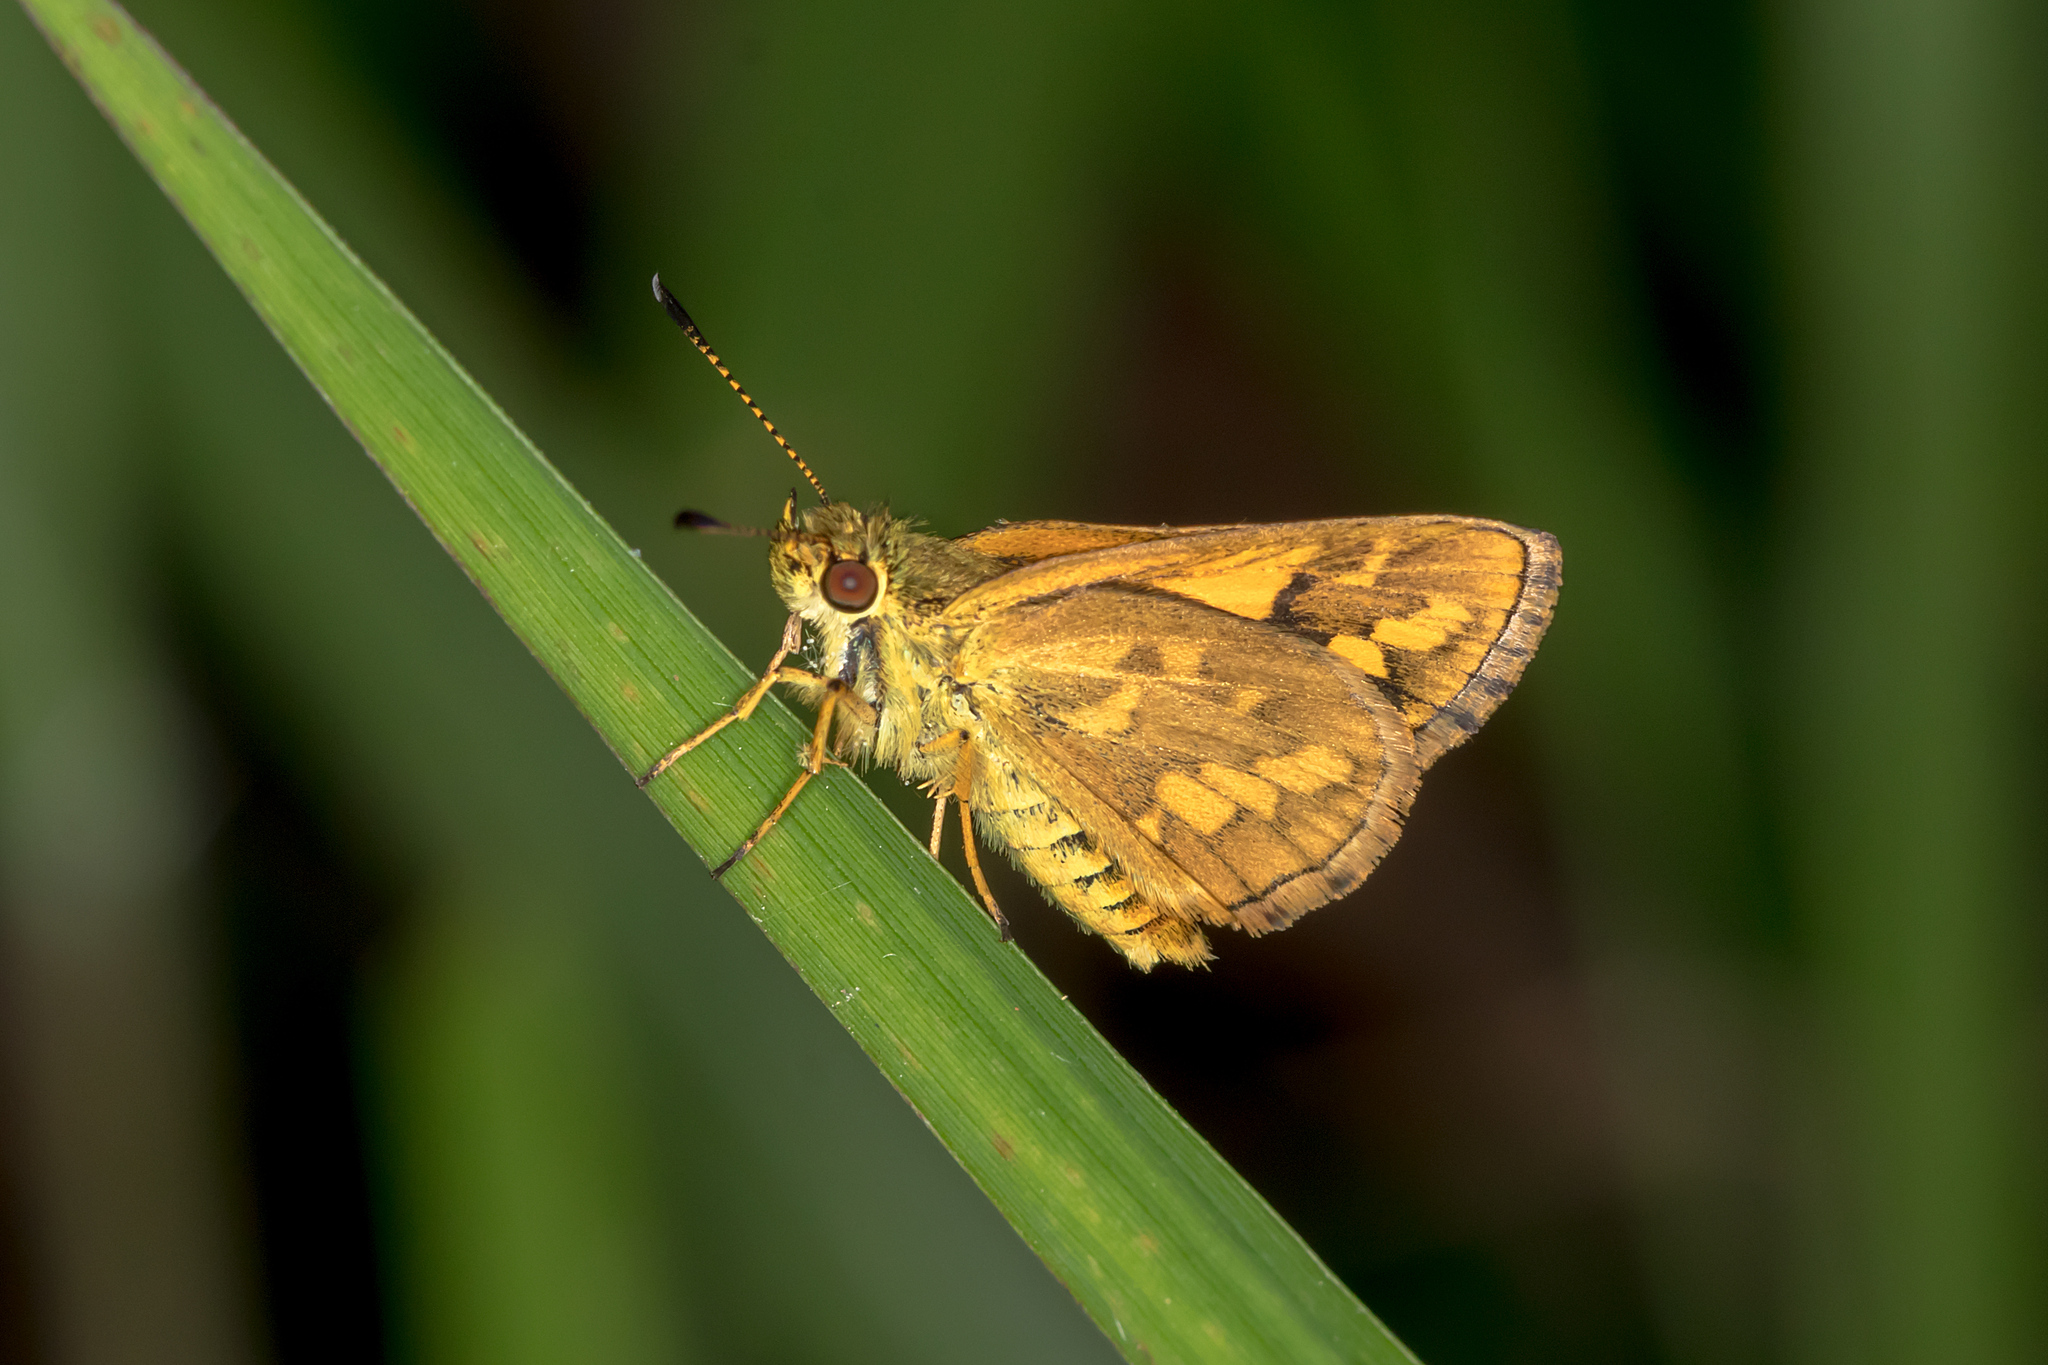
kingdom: Animalia
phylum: Arthropoda
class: Insecta
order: Lepidoptera
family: Hesperiidae
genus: Suniana
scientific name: Suniana sunias
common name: Wide-brand grass-dart
